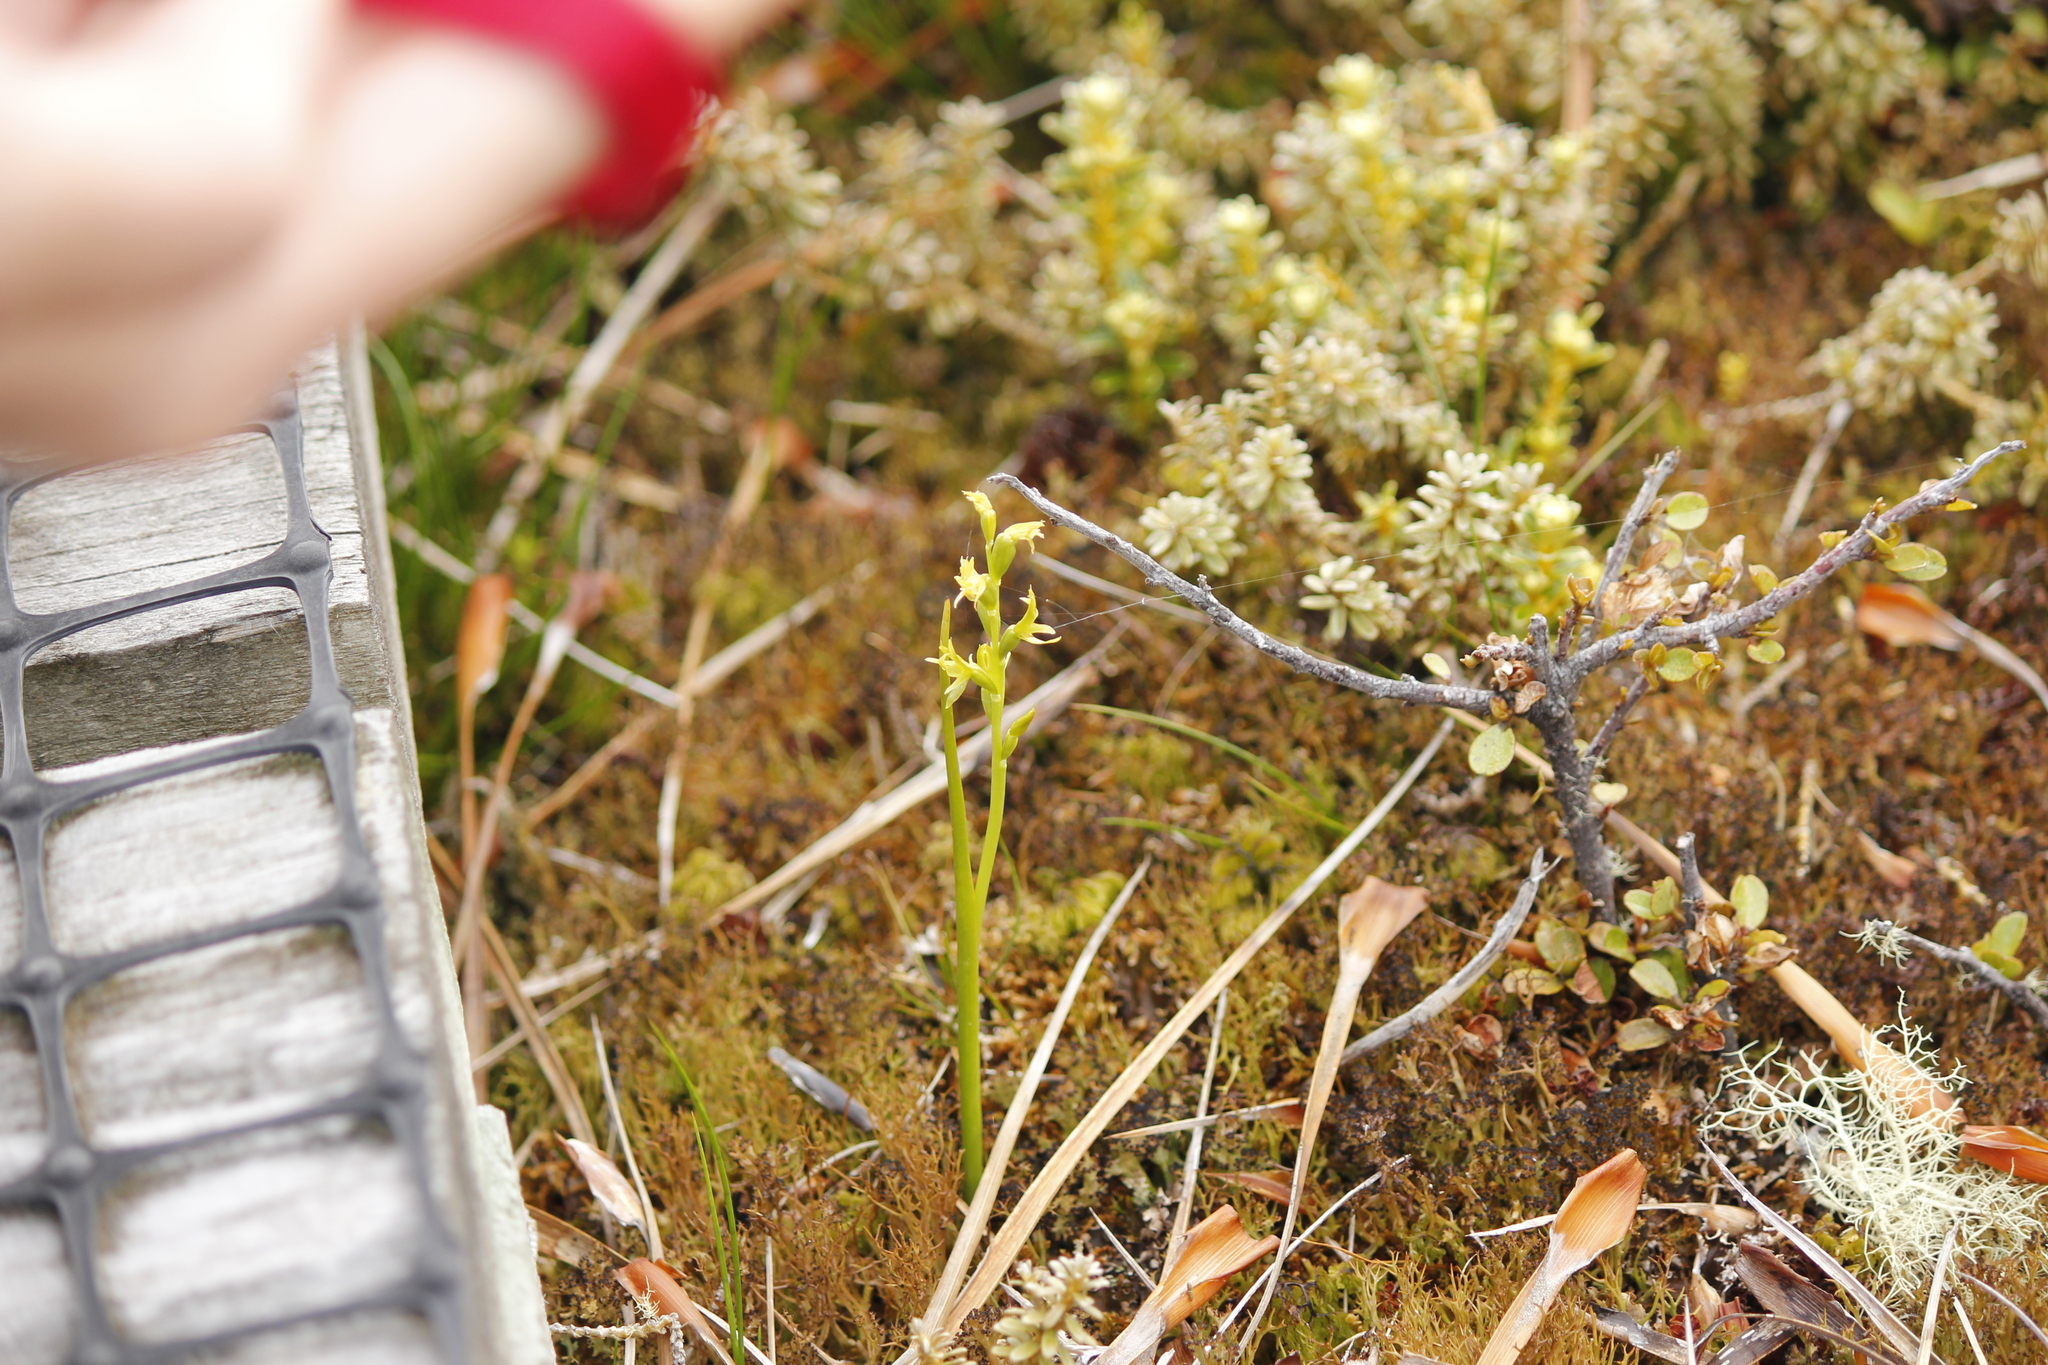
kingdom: Plantae
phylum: Tracheophyta
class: Liliopsida
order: Asparagales
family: Orchidaceae
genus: Prasophyllum
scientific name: Prasophyllum colensoi
